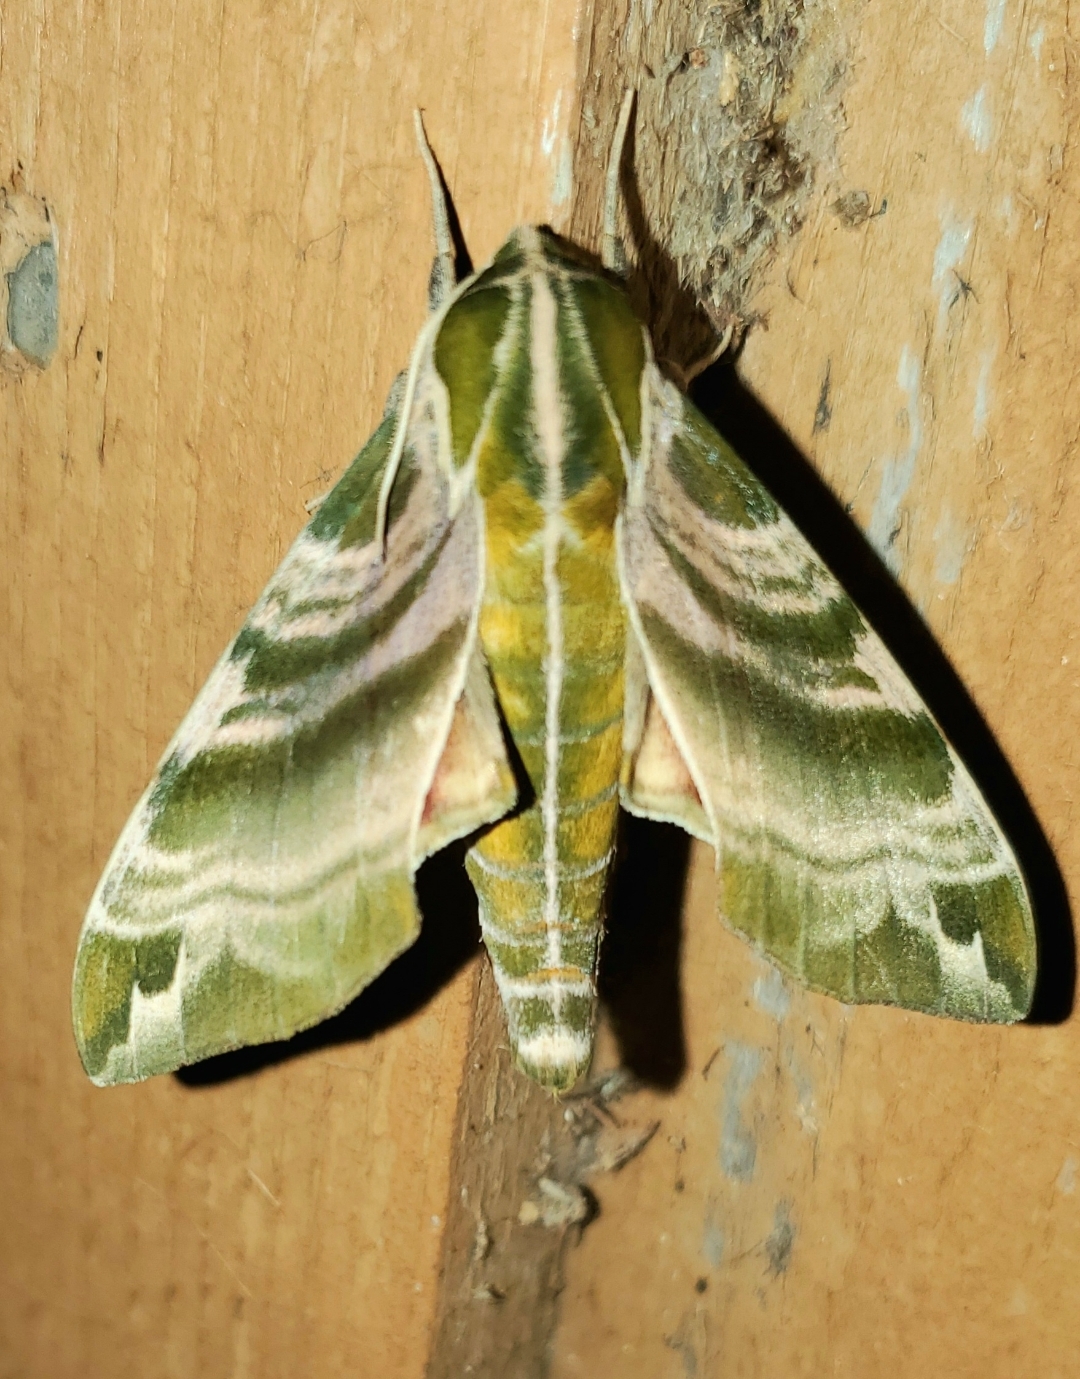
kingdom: Animalia
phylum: Arthropoda
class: Insecta
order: Lepidoptera
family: Sphingidae
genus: Darapsa
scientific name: Darapsa versicolor
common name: Hydrangea sphinx
